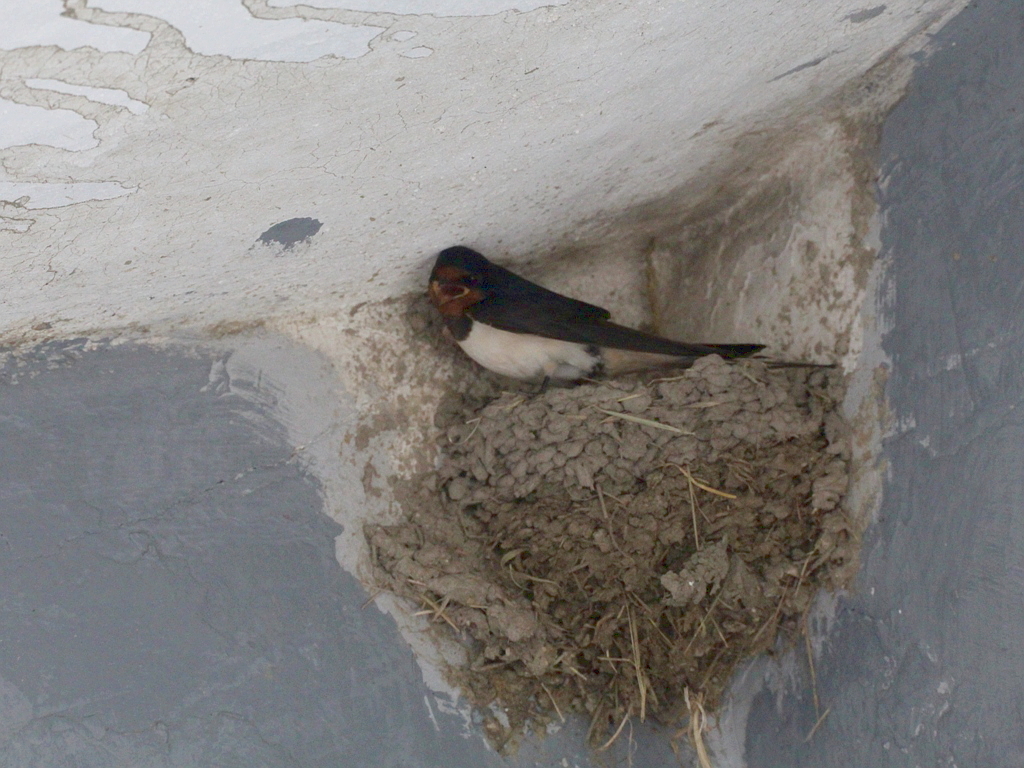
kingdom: Animalia
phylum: Chordata
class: Aves
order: Passeriformes
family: Hirundinidae
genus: Hirundo
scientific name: Hirundo rustica
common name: Barn swallow
